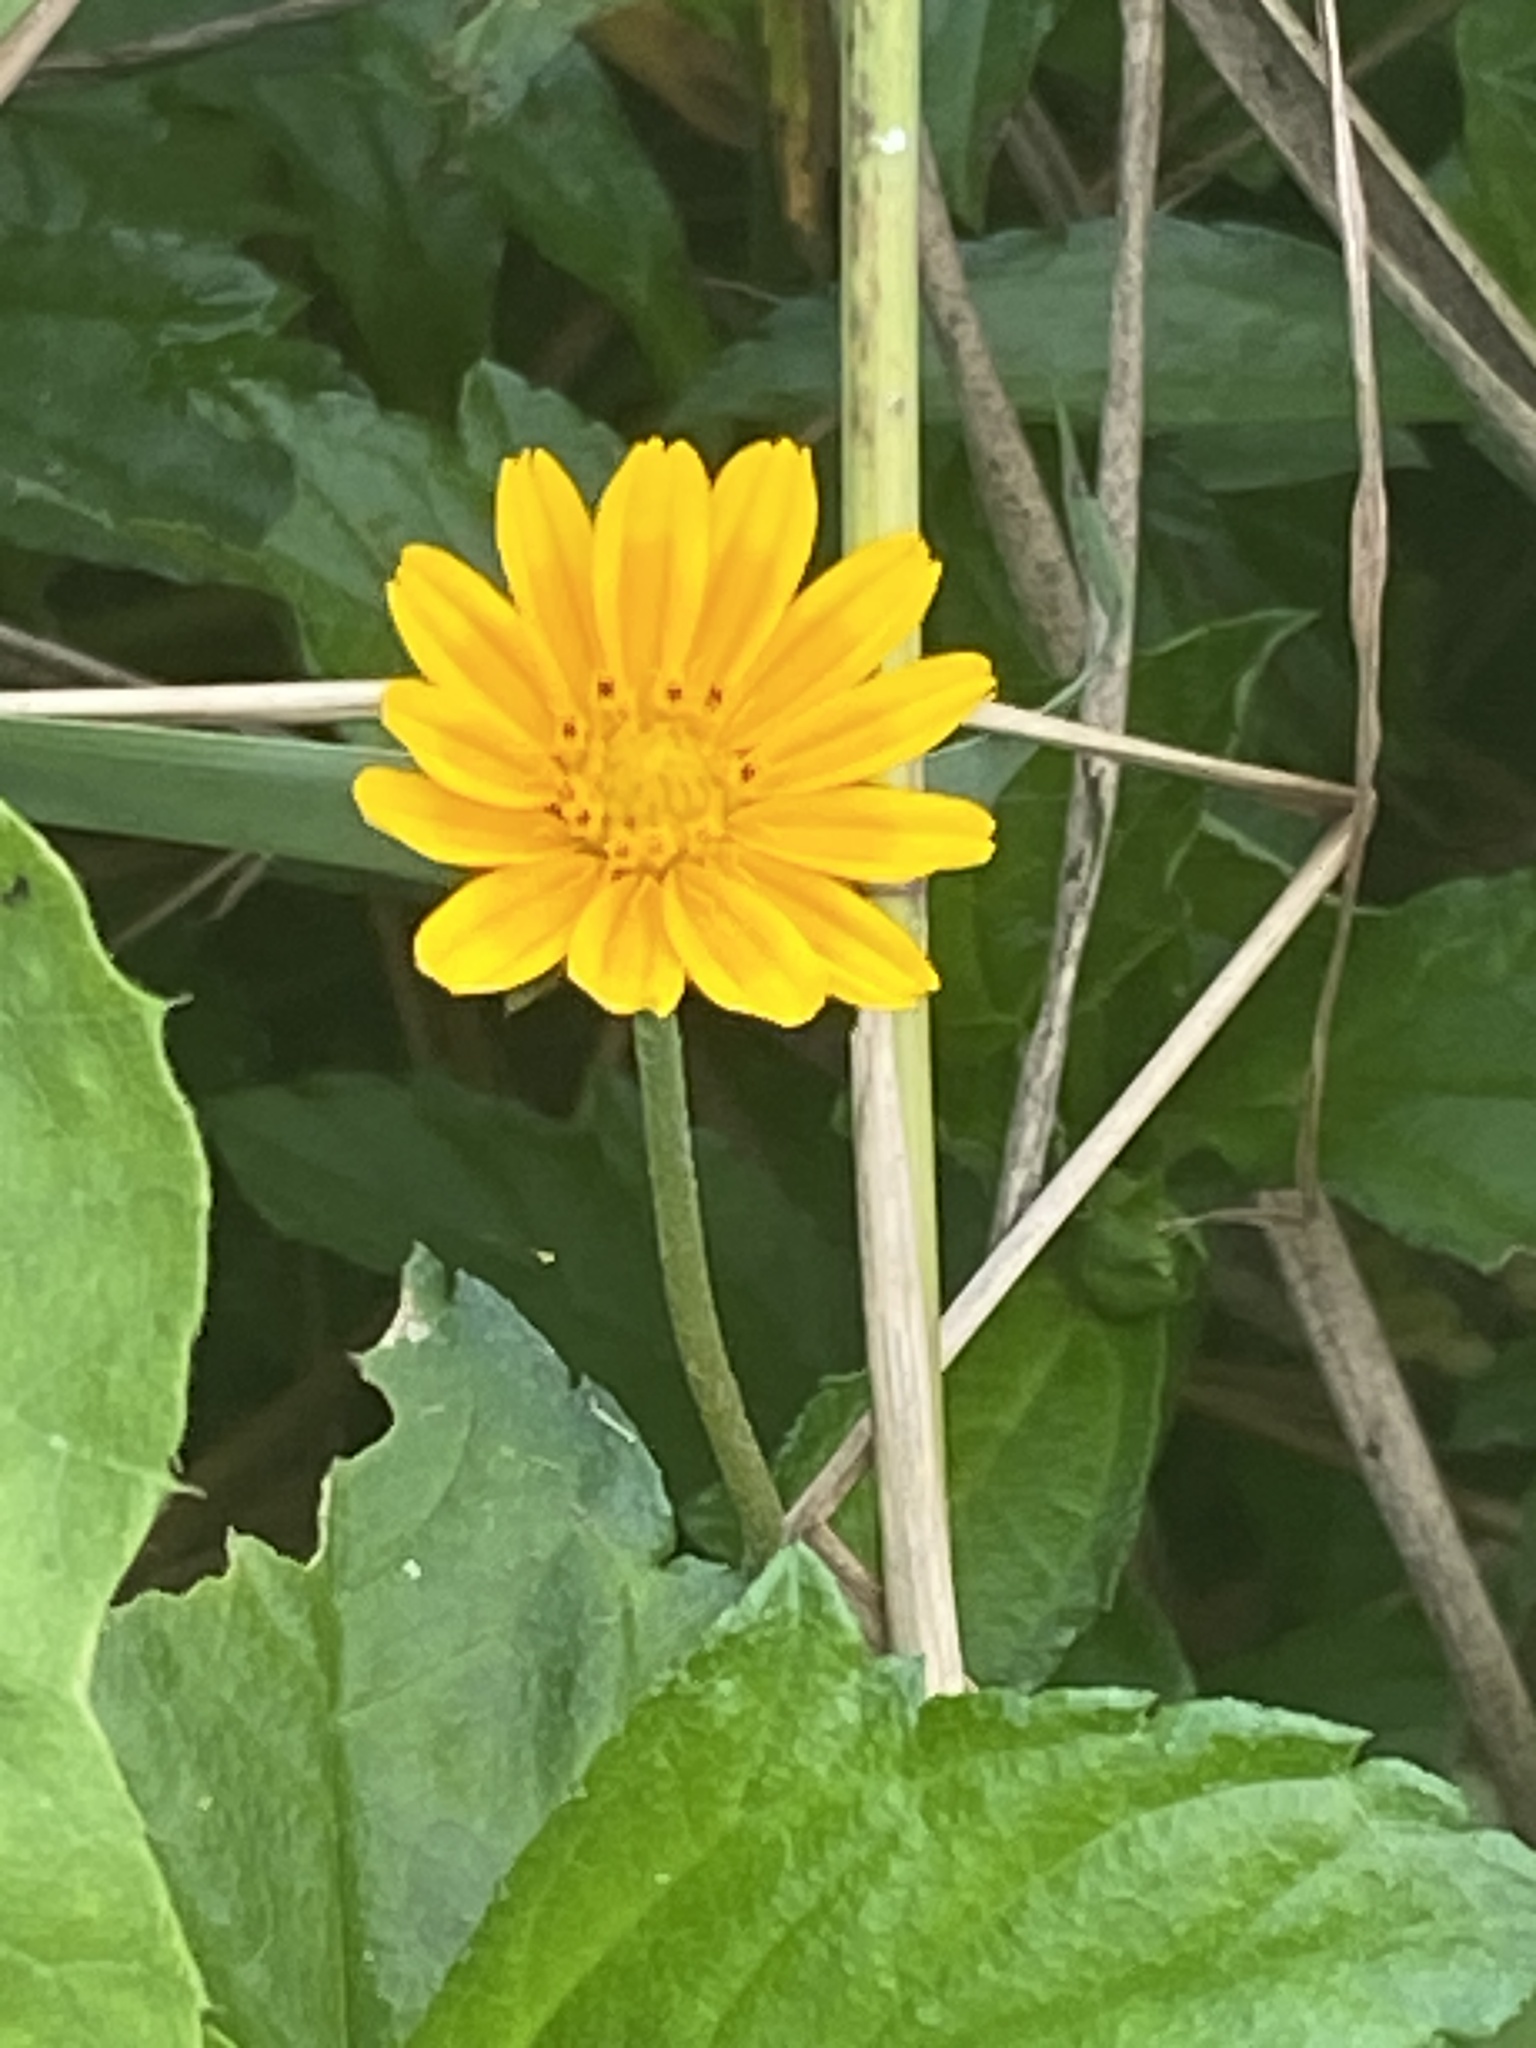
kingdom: Plantae
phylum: Tracheophyta
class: Magnoliopsida
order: Asterales
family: Asteraceae
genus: Sphagneticola
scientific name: Sphagneticola trilobata
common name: Bay biscayne creeping-oxeye
